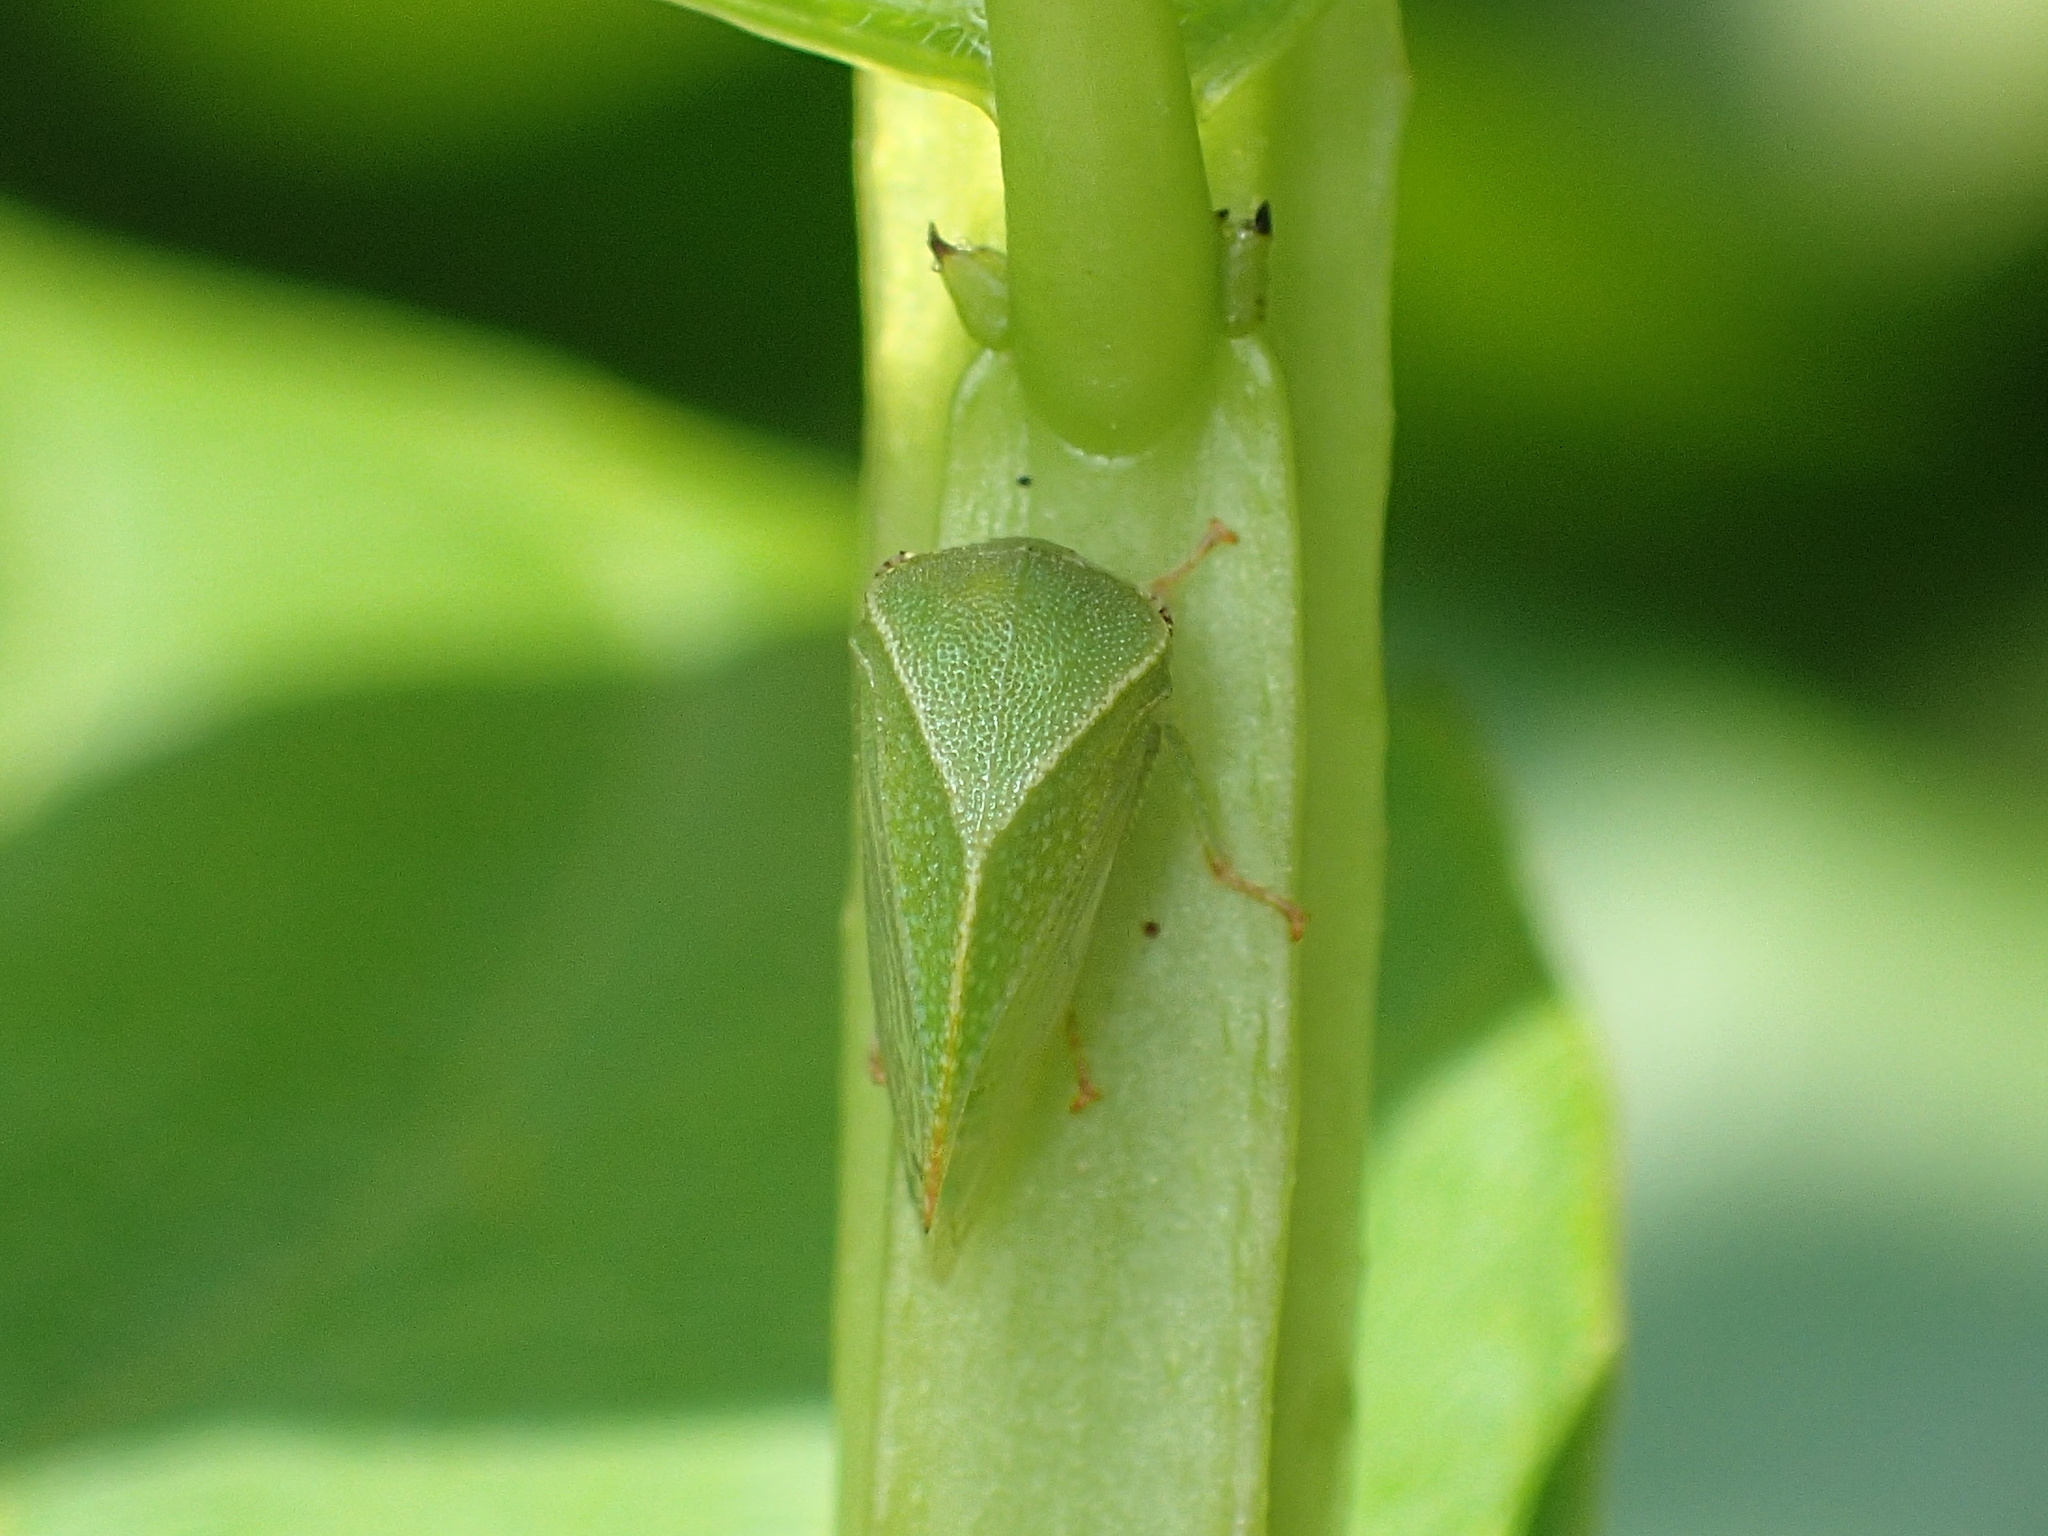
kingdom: Animalia
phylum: Arthropoda
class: Insecta
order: Hemiptera
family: Membracidae
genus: Spissistilus
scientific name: Spissistilus festina
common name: Membracid bug
